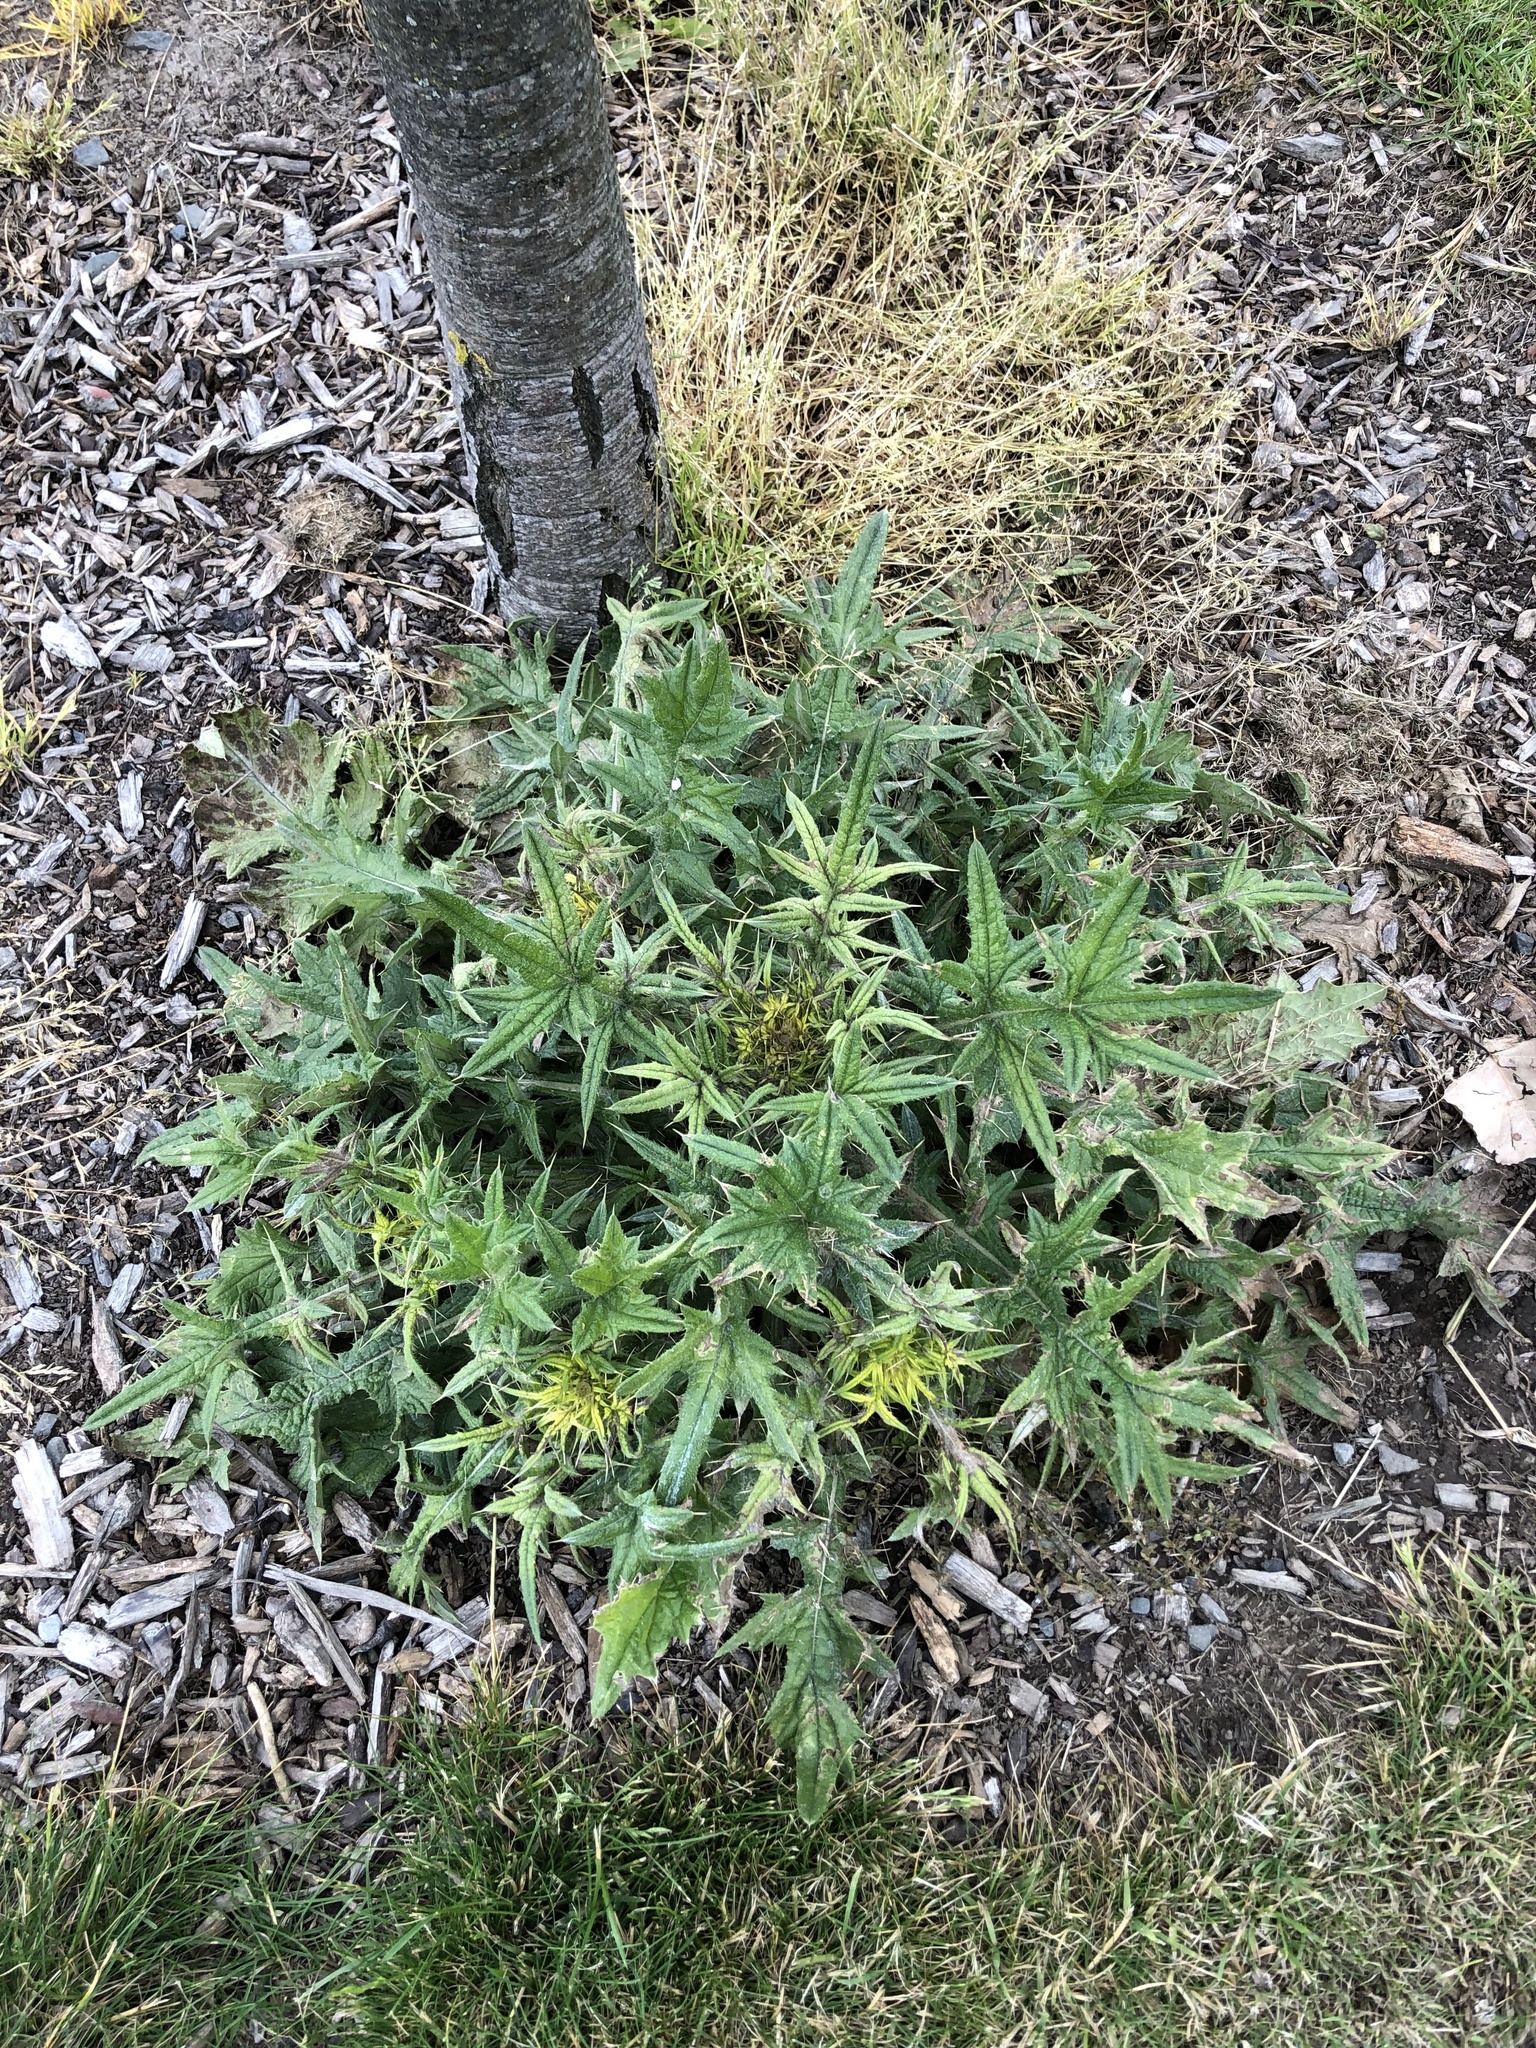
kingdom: Plantae
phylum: Tracheophyta
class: Magnoliopsida
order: Asterales
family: Asteraceae
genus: Cirsium
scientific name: Cirsium vulgare
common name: Bull thistle
